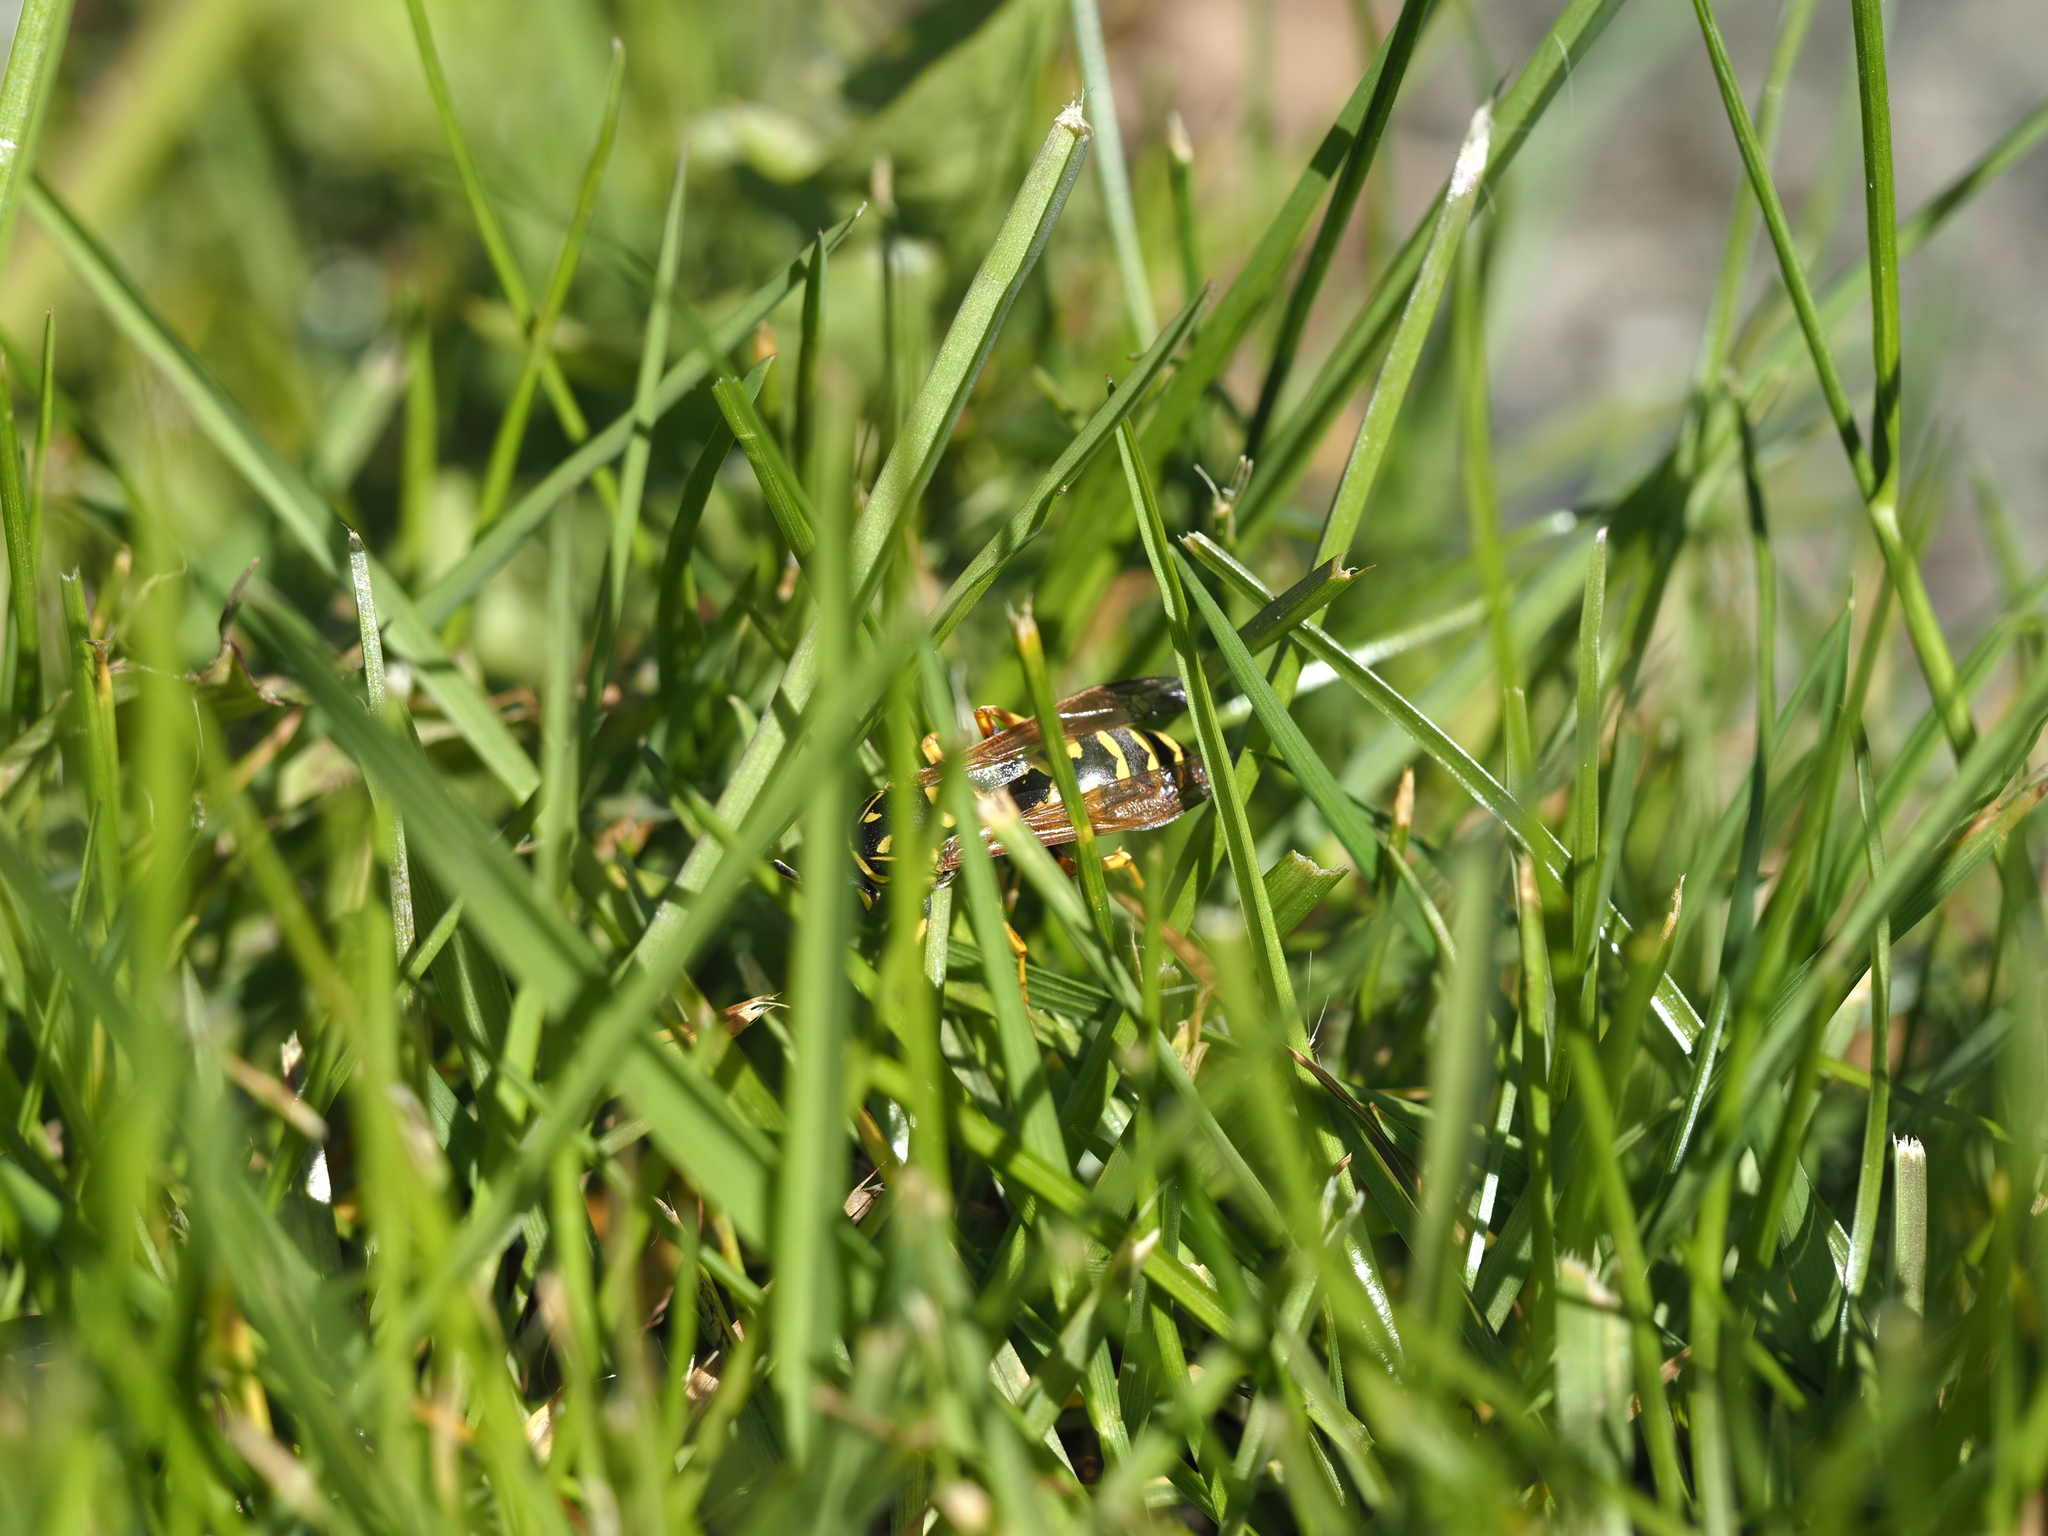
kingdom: Animalia
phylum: Arthropoda
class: Insecta
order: Hymenoptera
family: Eumenidae
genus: Polistes
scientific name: Polistes dominula
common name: Paper wasp
